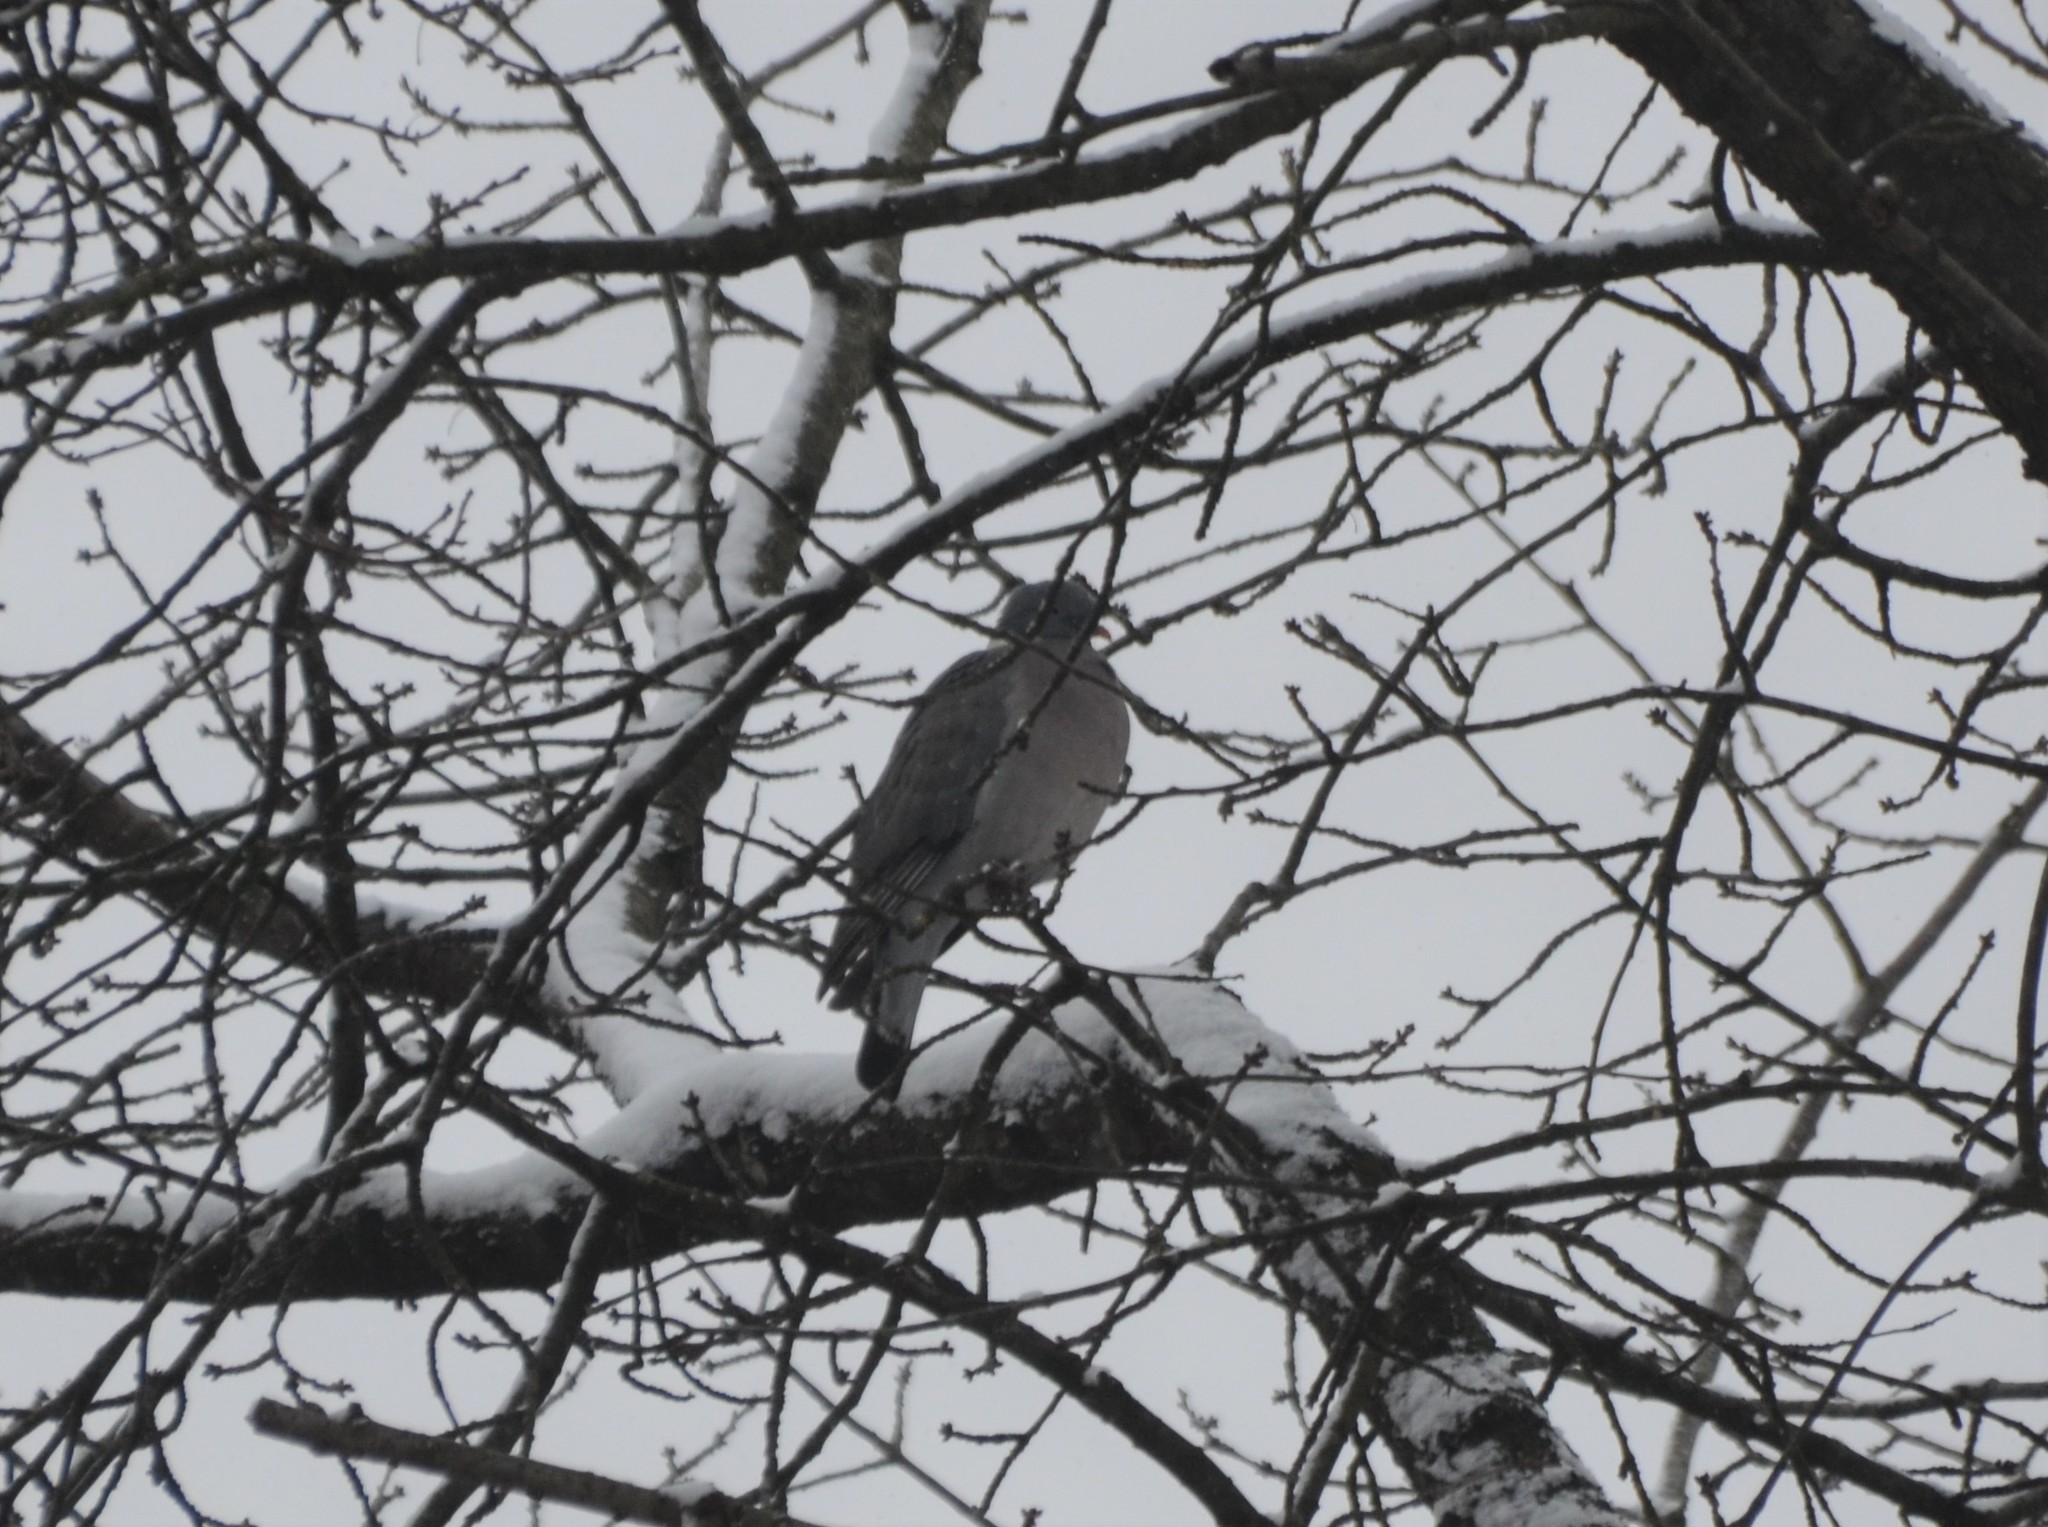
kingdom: Animalia
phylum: Chordata
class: Aves
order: Columbiformes
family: Columbidae
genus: Columba
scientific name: Columba palumbus
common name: Common wood pigeon
